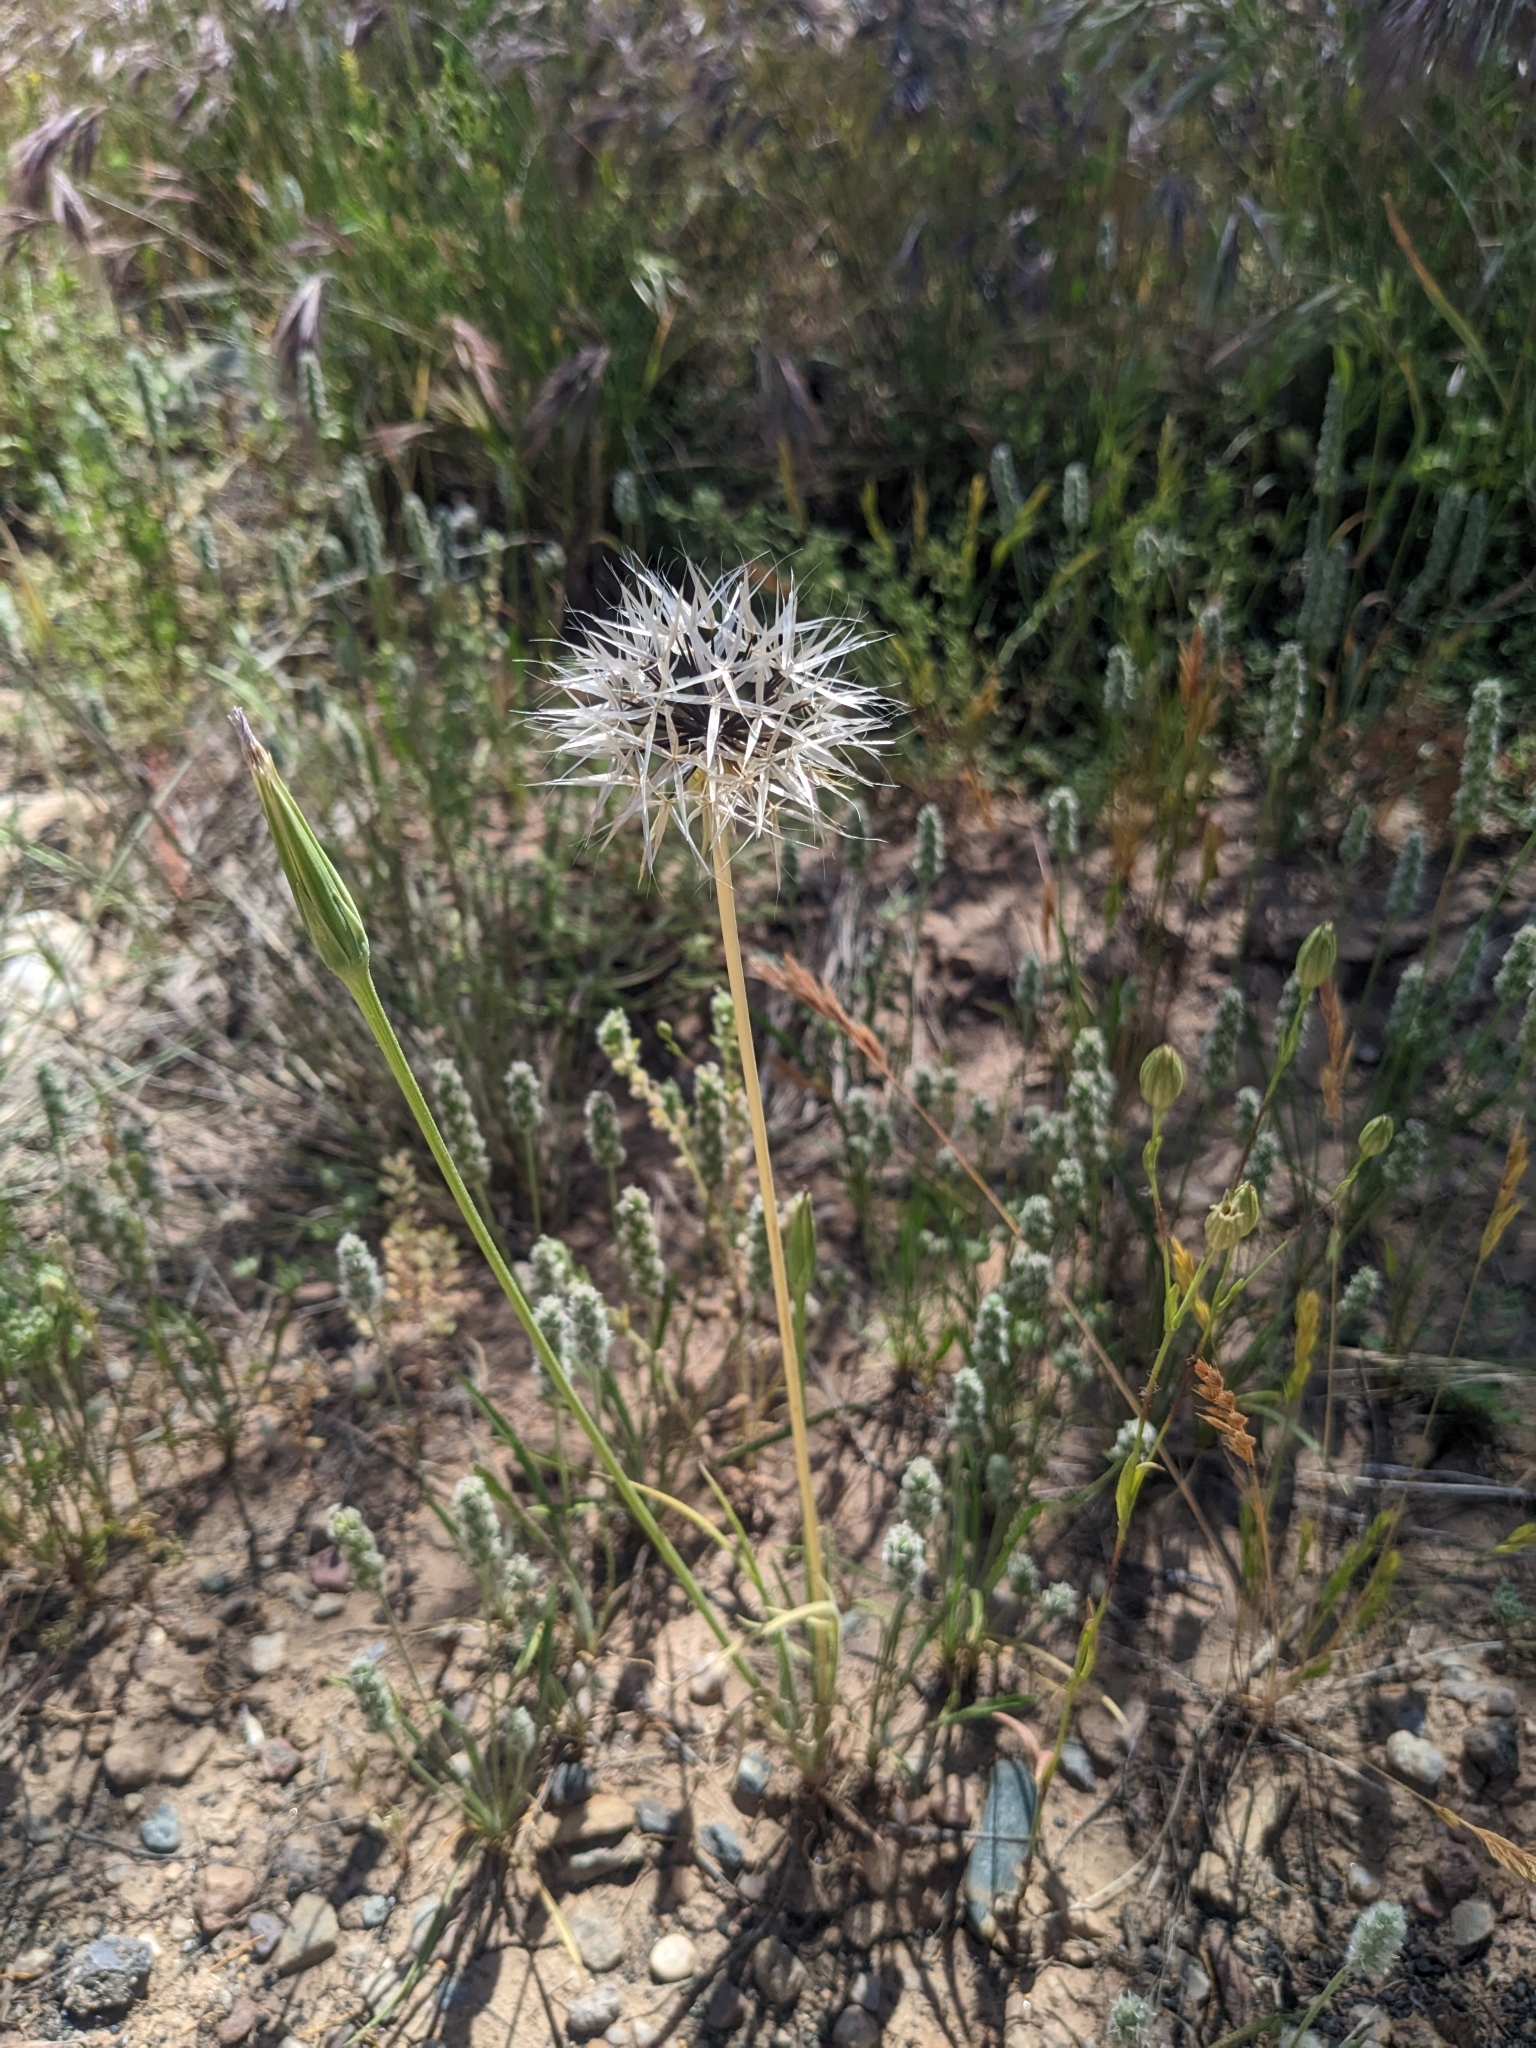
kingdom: Plantae
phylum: Tracheophyta
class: Magnoliopsida
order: Asterales
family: Asteraceae
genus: Microseris
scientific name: Microseris lindleyi
